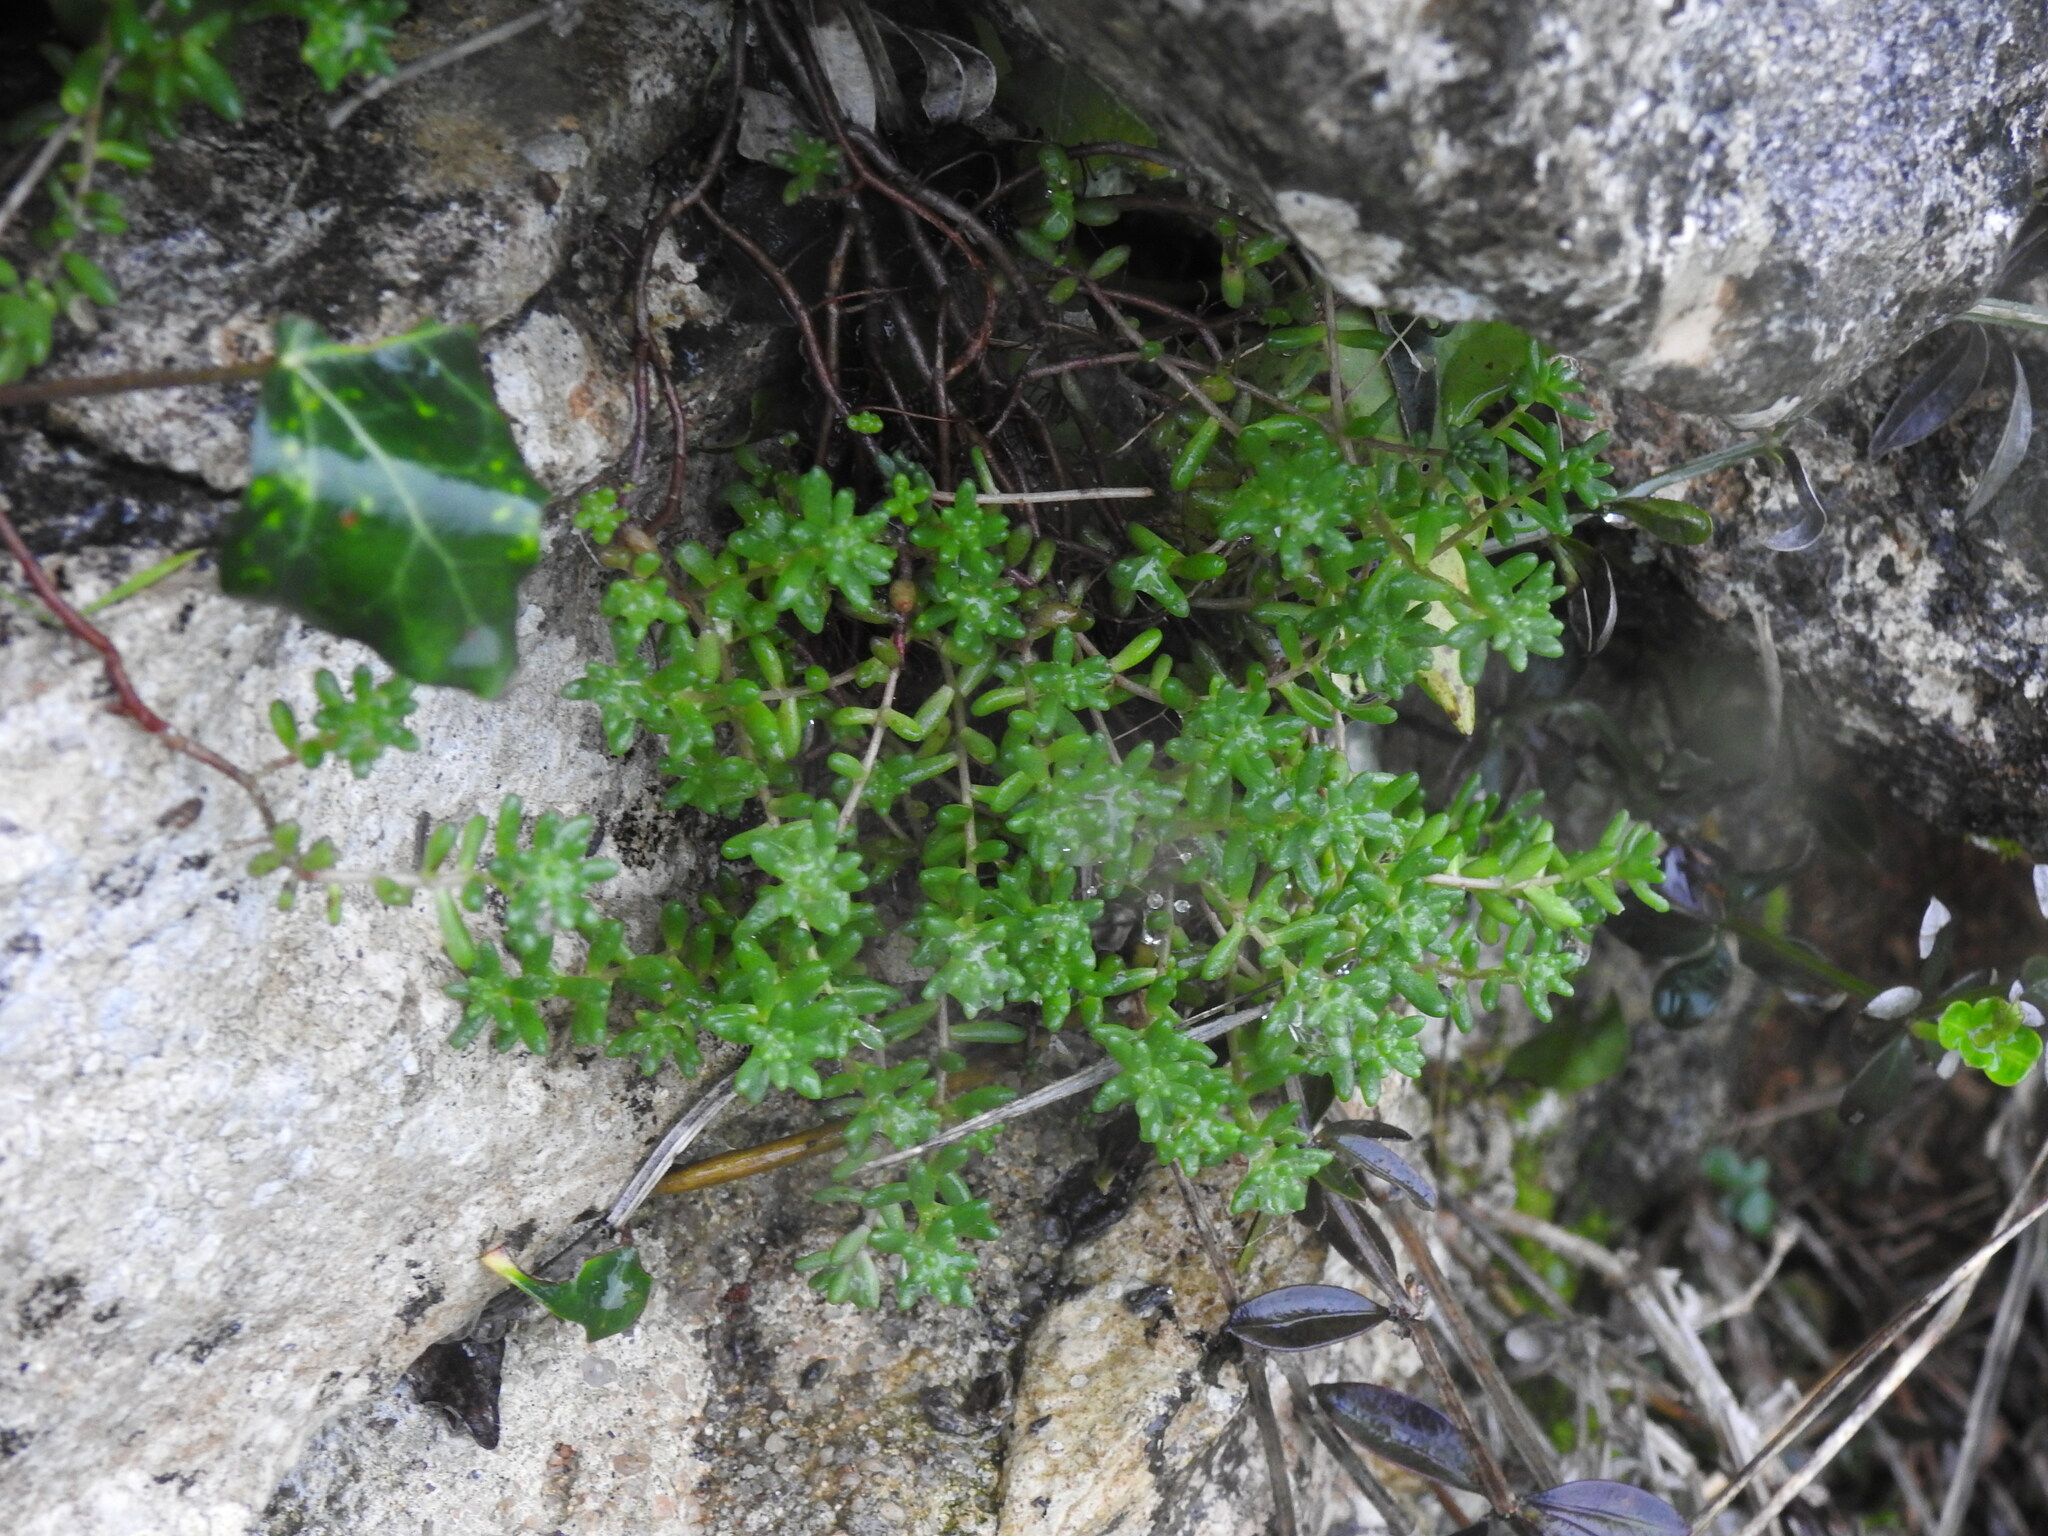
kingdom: Plantae
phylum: Tracheophyta
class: Magnoliopsida
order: Saxifragales
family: Crassulaceae
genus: Sedum
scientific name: Sedum album
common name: White stonecrop
